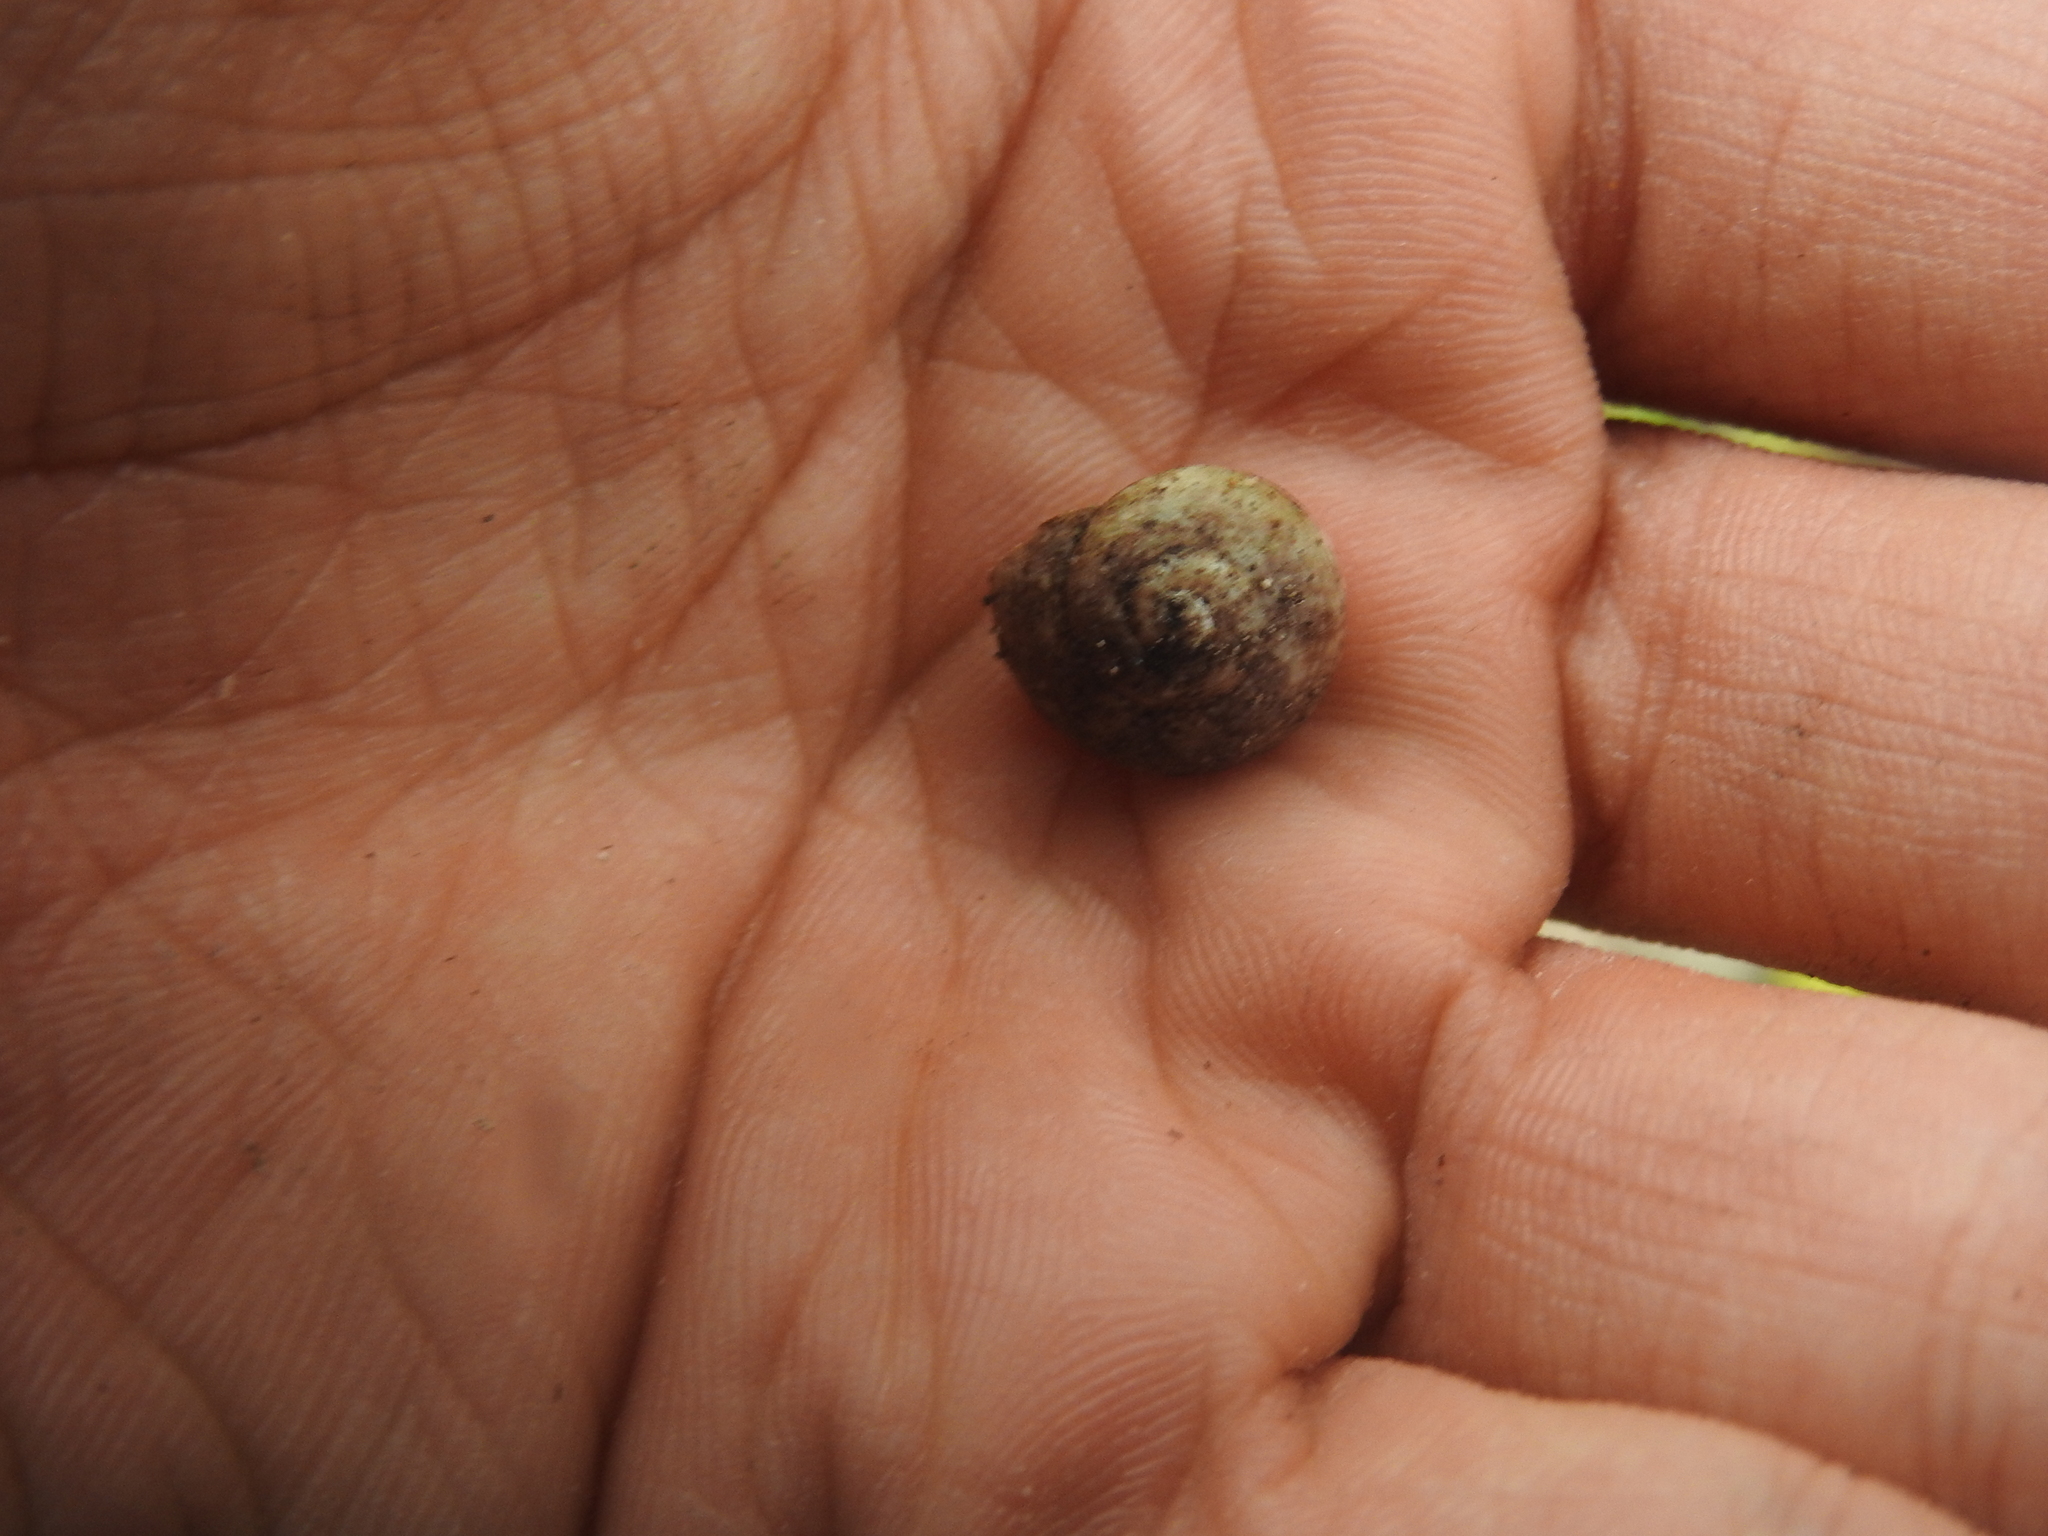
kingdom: Animalia
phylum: Mollusca
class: Gastropoda
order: Trochida
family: Tegulidae
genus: Agathistoma
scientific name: Agathistoma fasciatum
